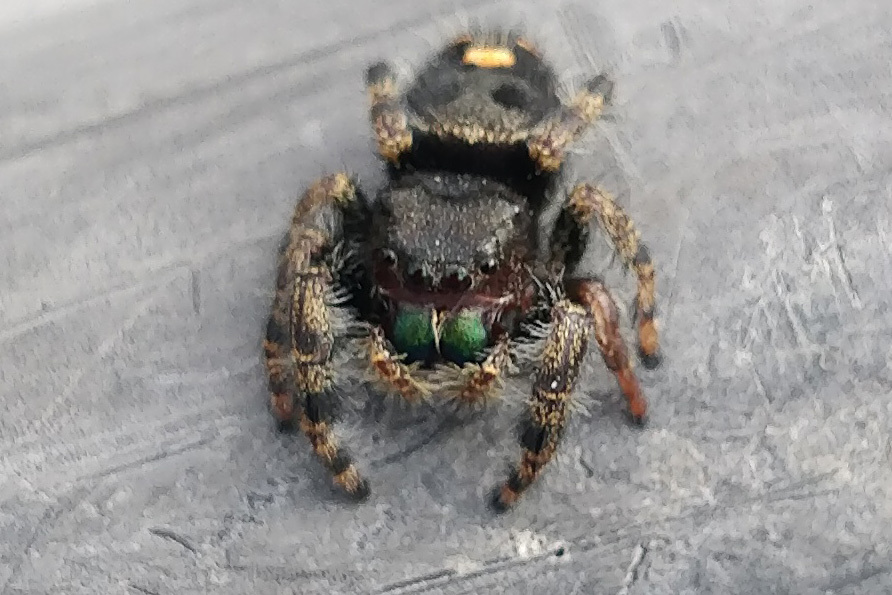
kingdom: Animalia
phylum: Arthropoda
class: Arachnida
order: Araneae
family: Salticidae
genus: Phidippus
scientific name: Phidippus audax
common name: Bold jumper
